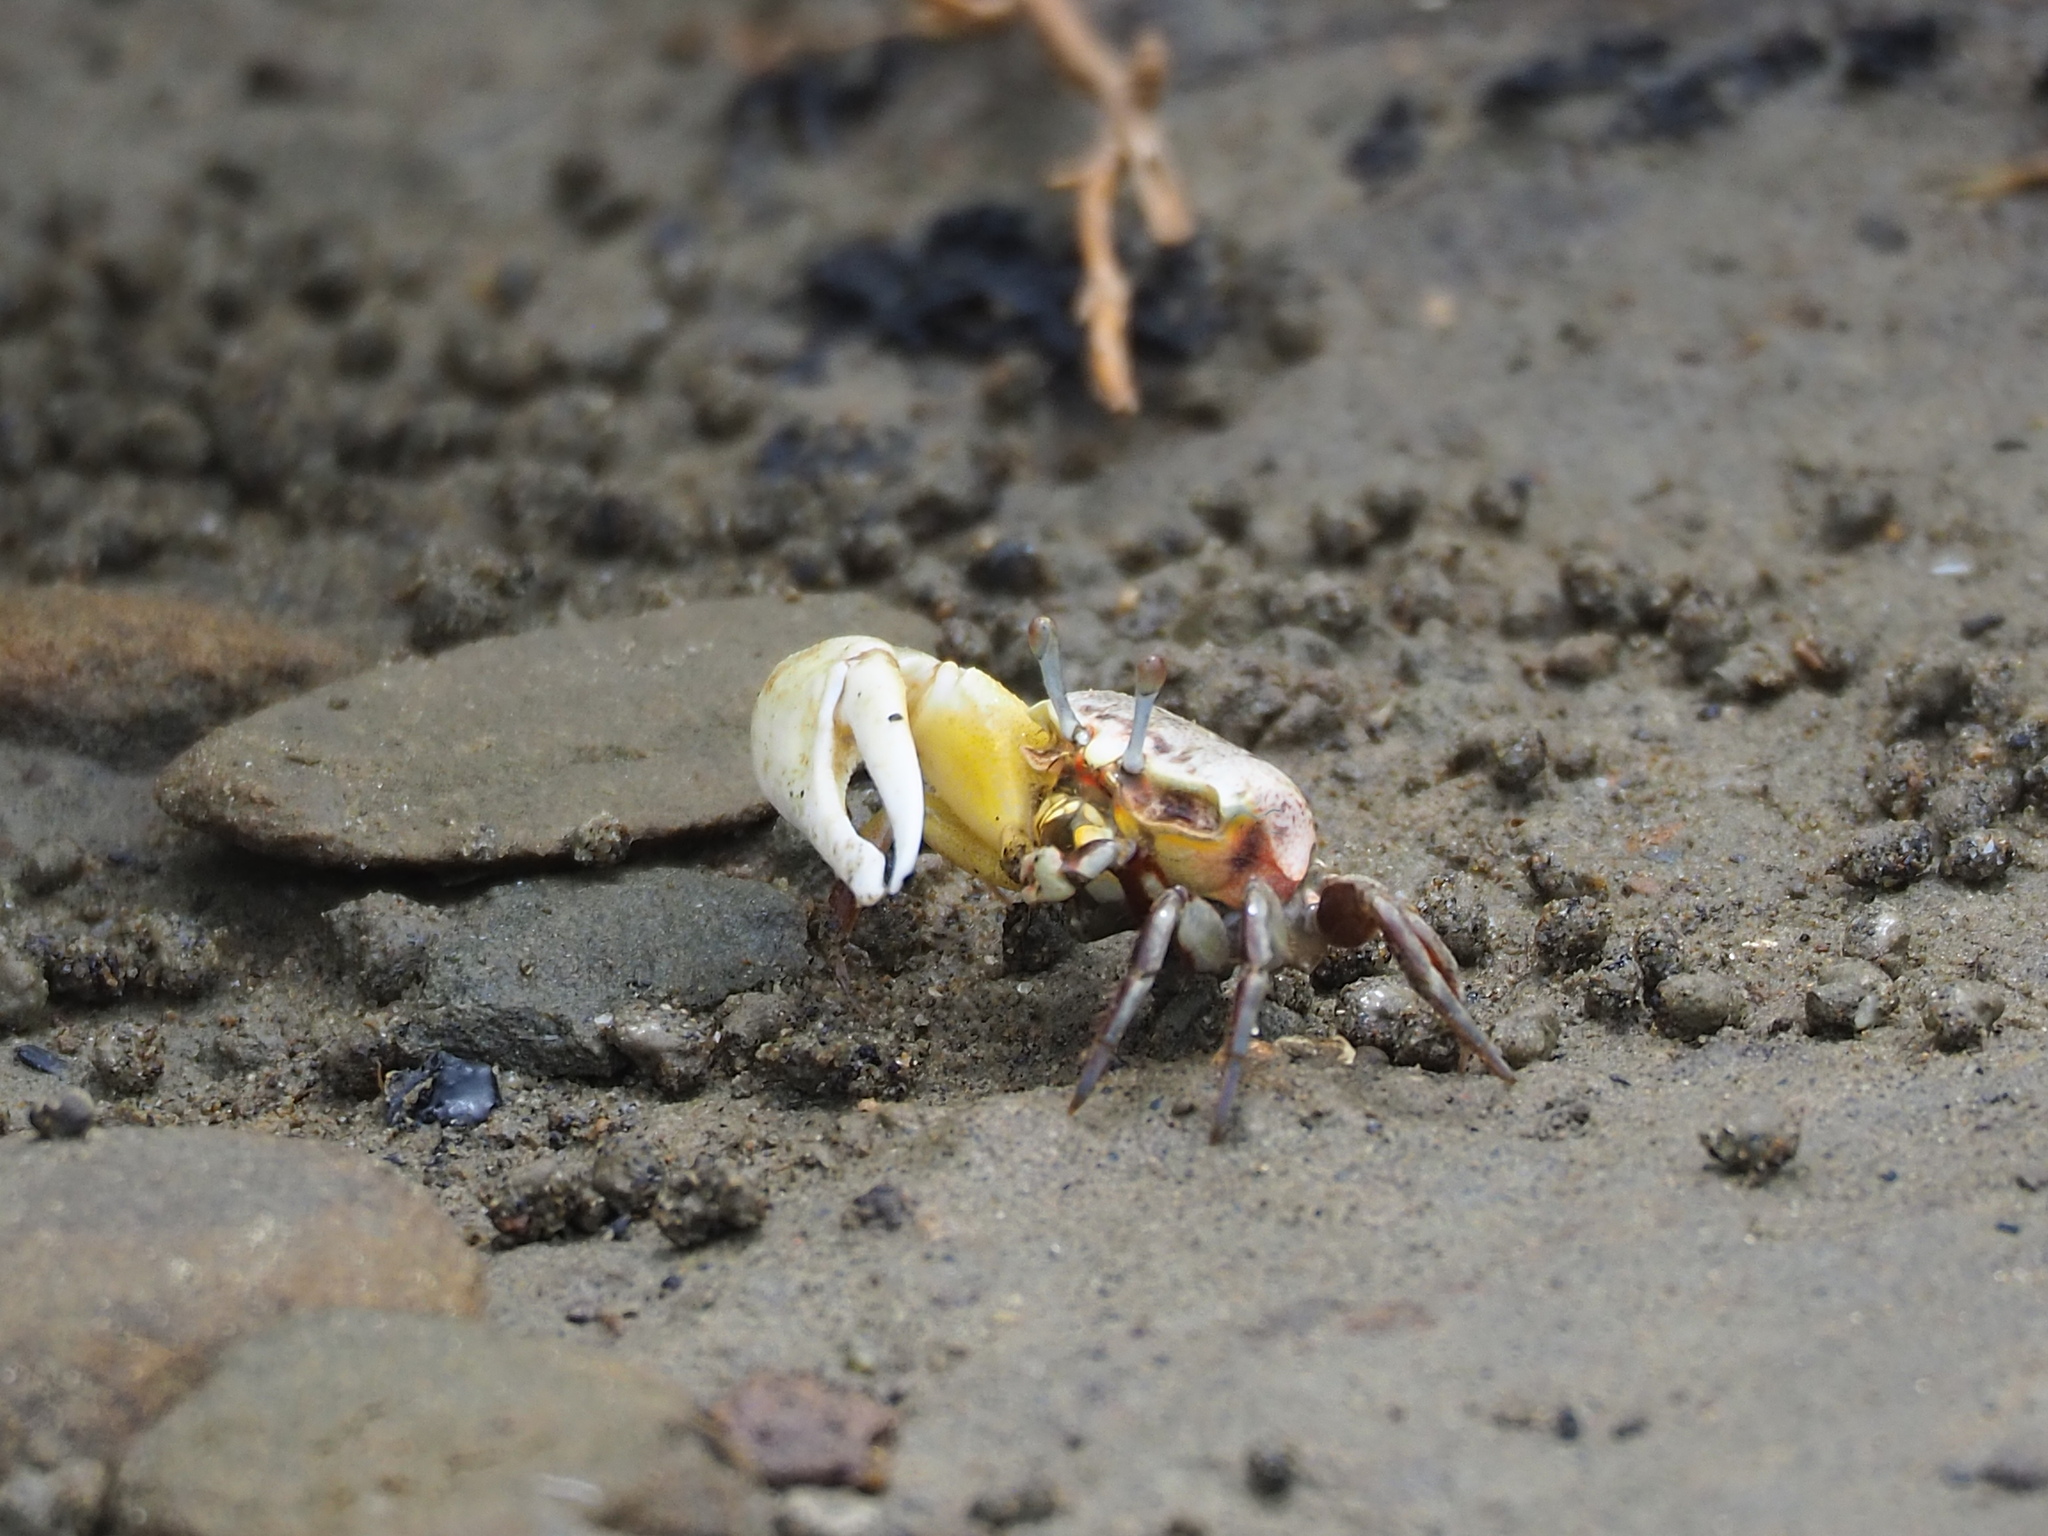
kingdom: Animalia
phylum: Arthropoda
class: Malacostraca
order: Decapoda
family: Ocypodidae
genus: Austruca
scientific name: Austruca lactea
